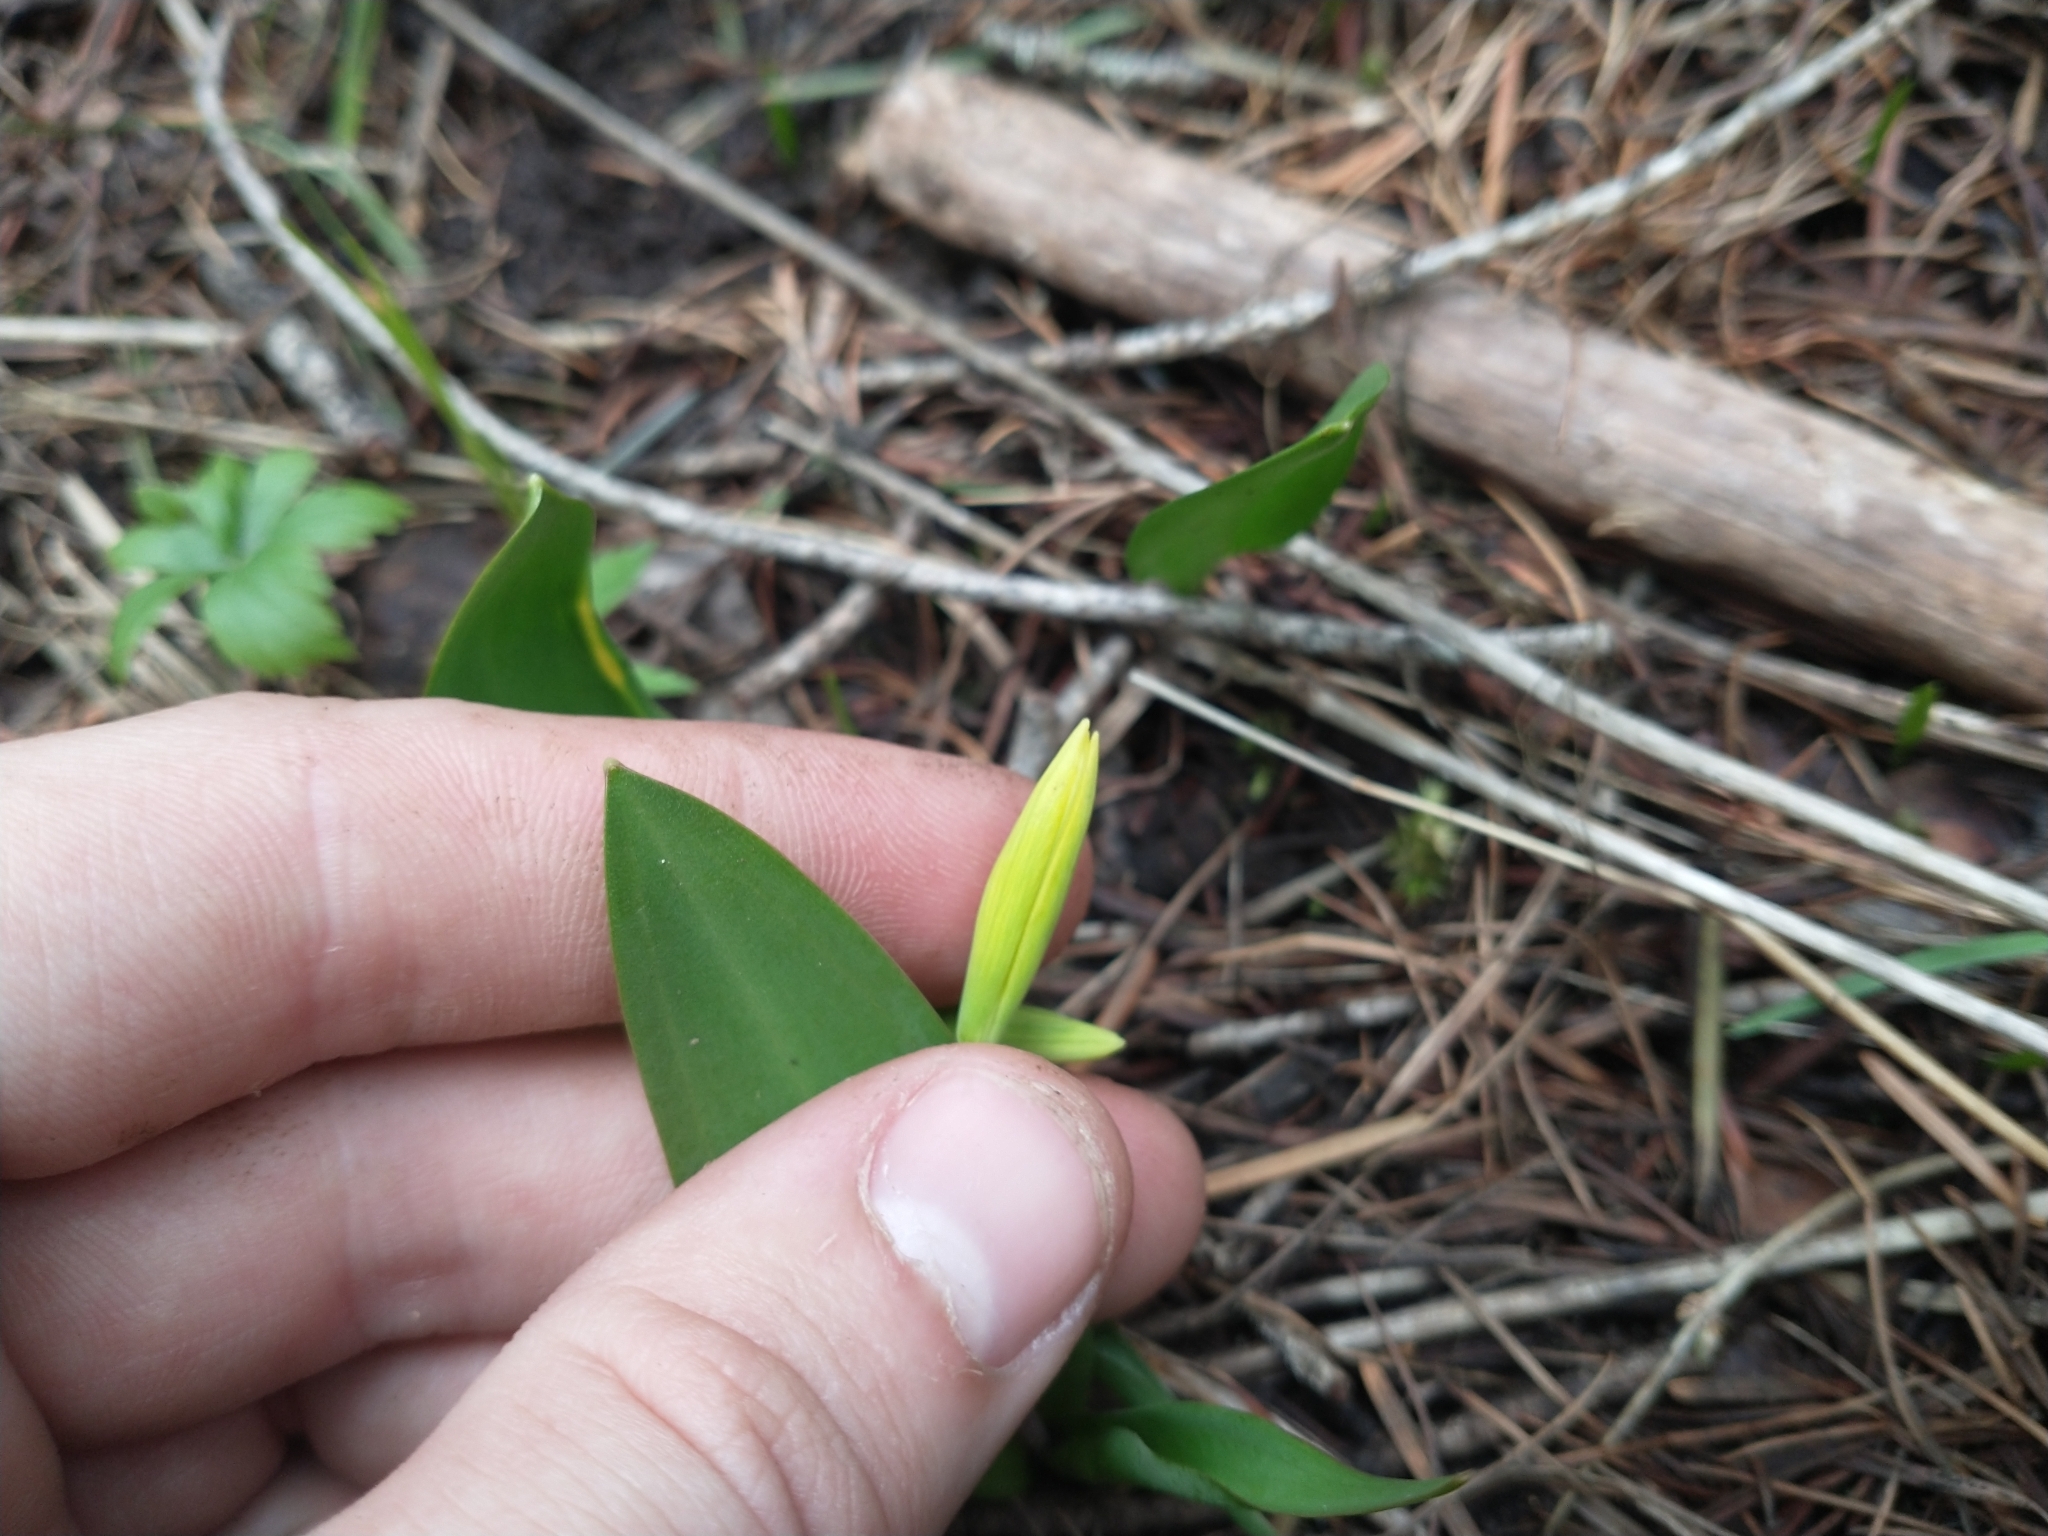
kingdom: Plantae
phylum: Tracheophyta
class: Liliopsida
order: Liliales
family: Liliaceae
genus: Erythronium
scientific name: Erythronium grandiflorum
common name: Avalanche-lily
